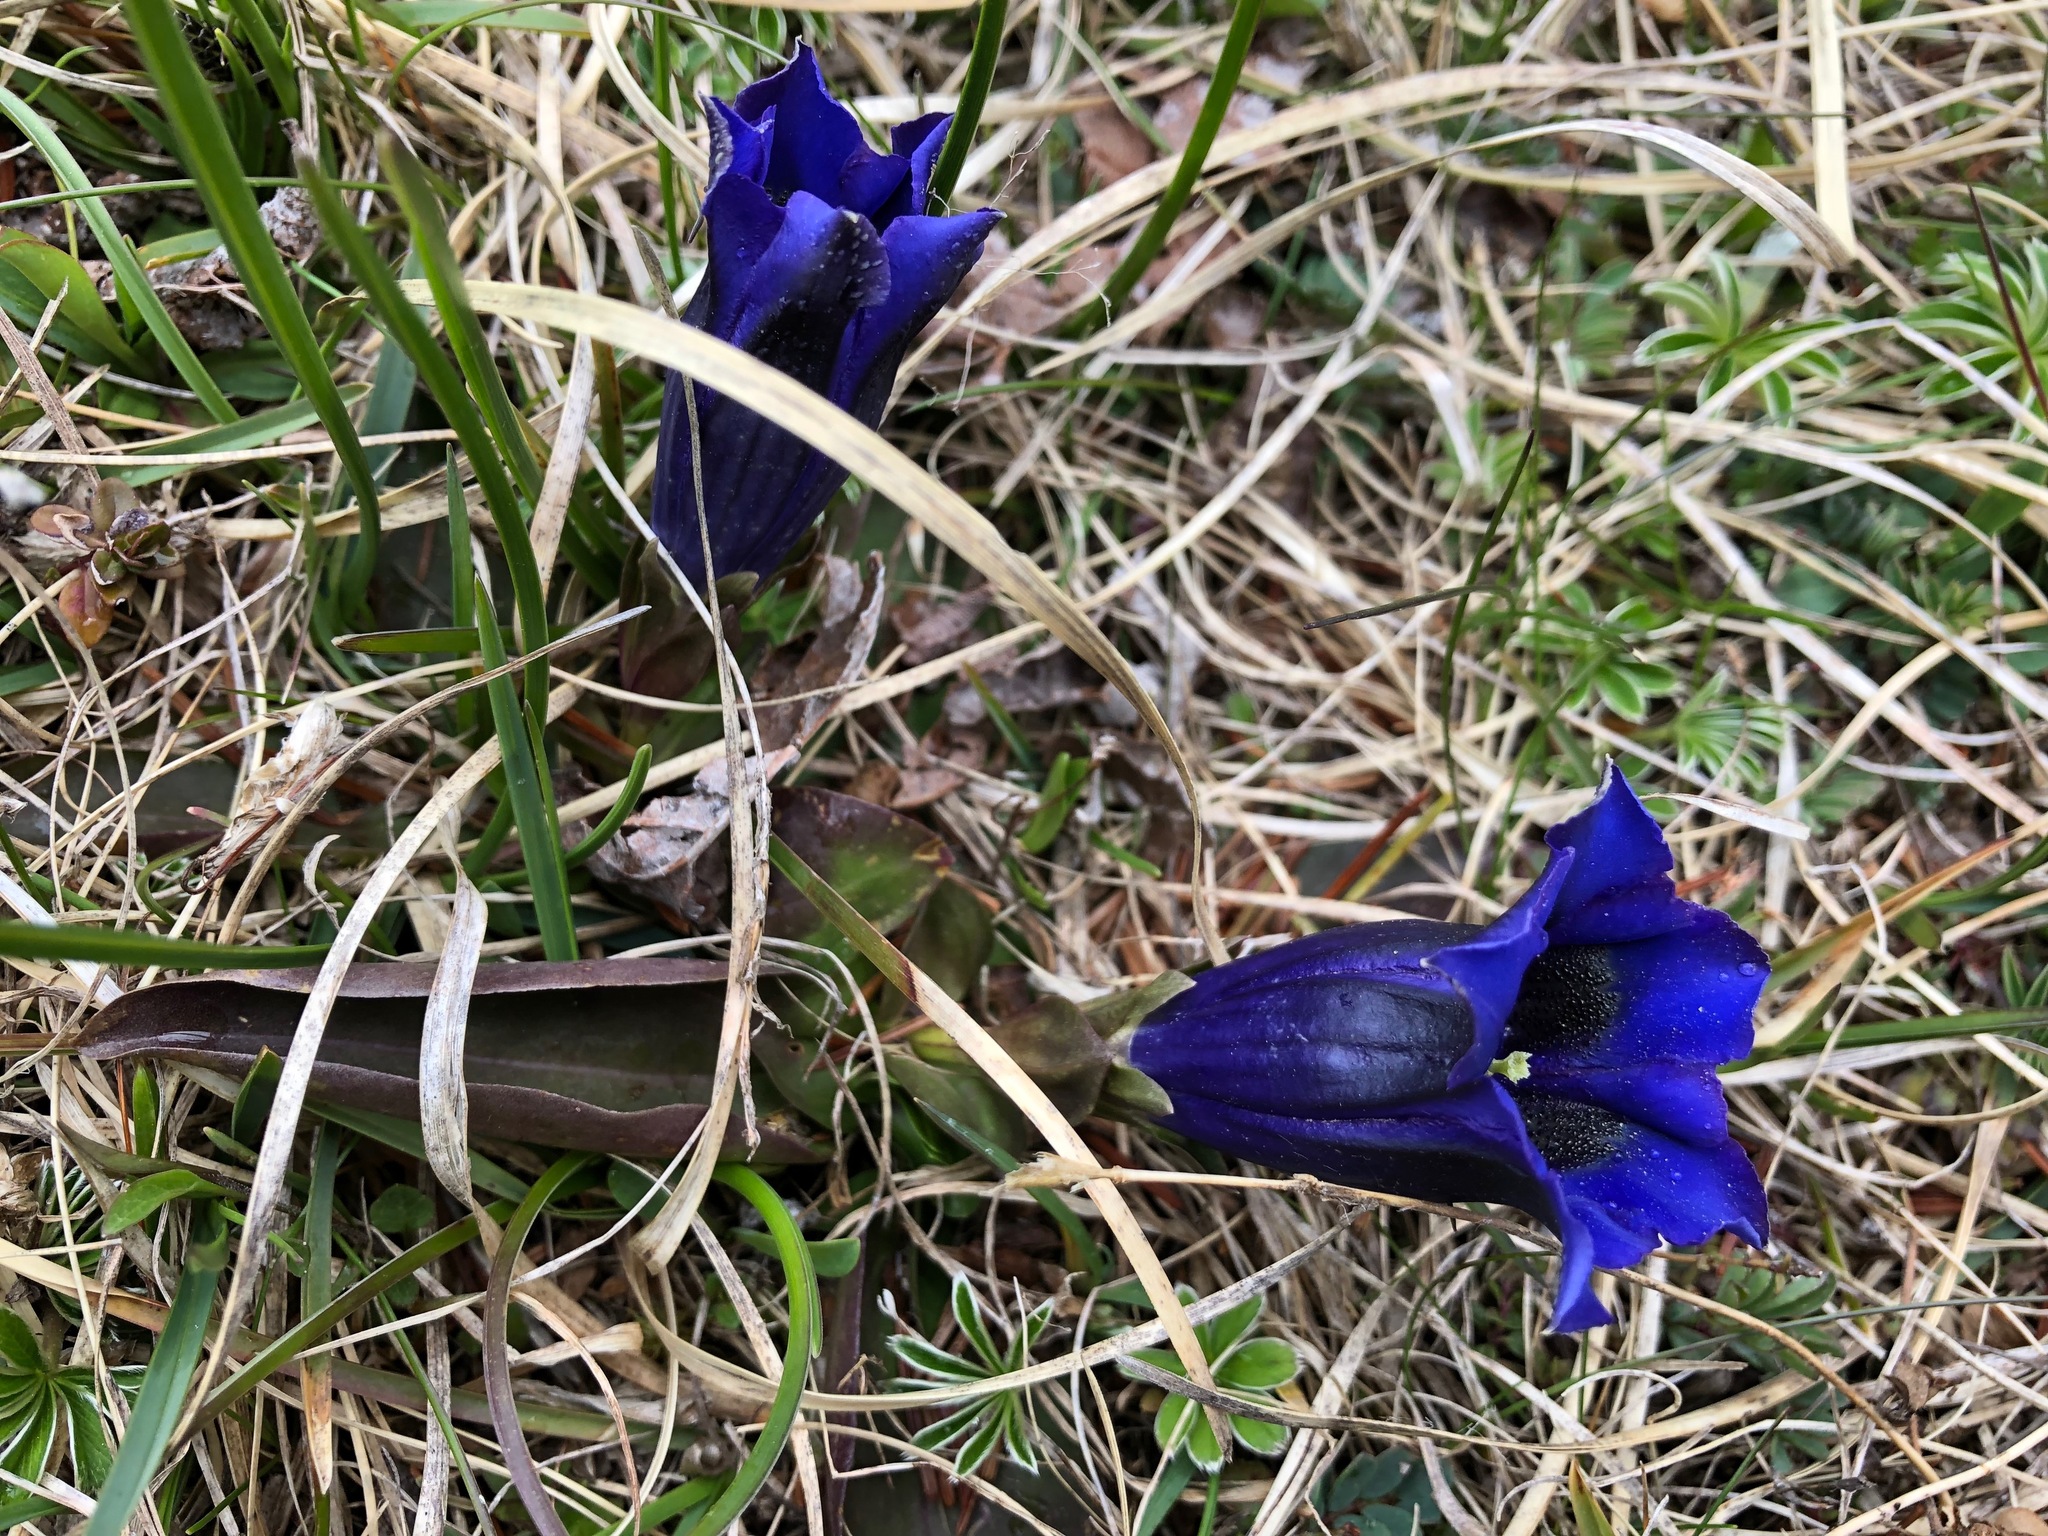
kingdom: Plantae
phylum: Tracheophyta
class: Magnoliopsida
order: Gentianales
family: Gentianaceae
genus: Gentiana
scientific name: Gentiana acaulis
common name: Trumpet gentian
